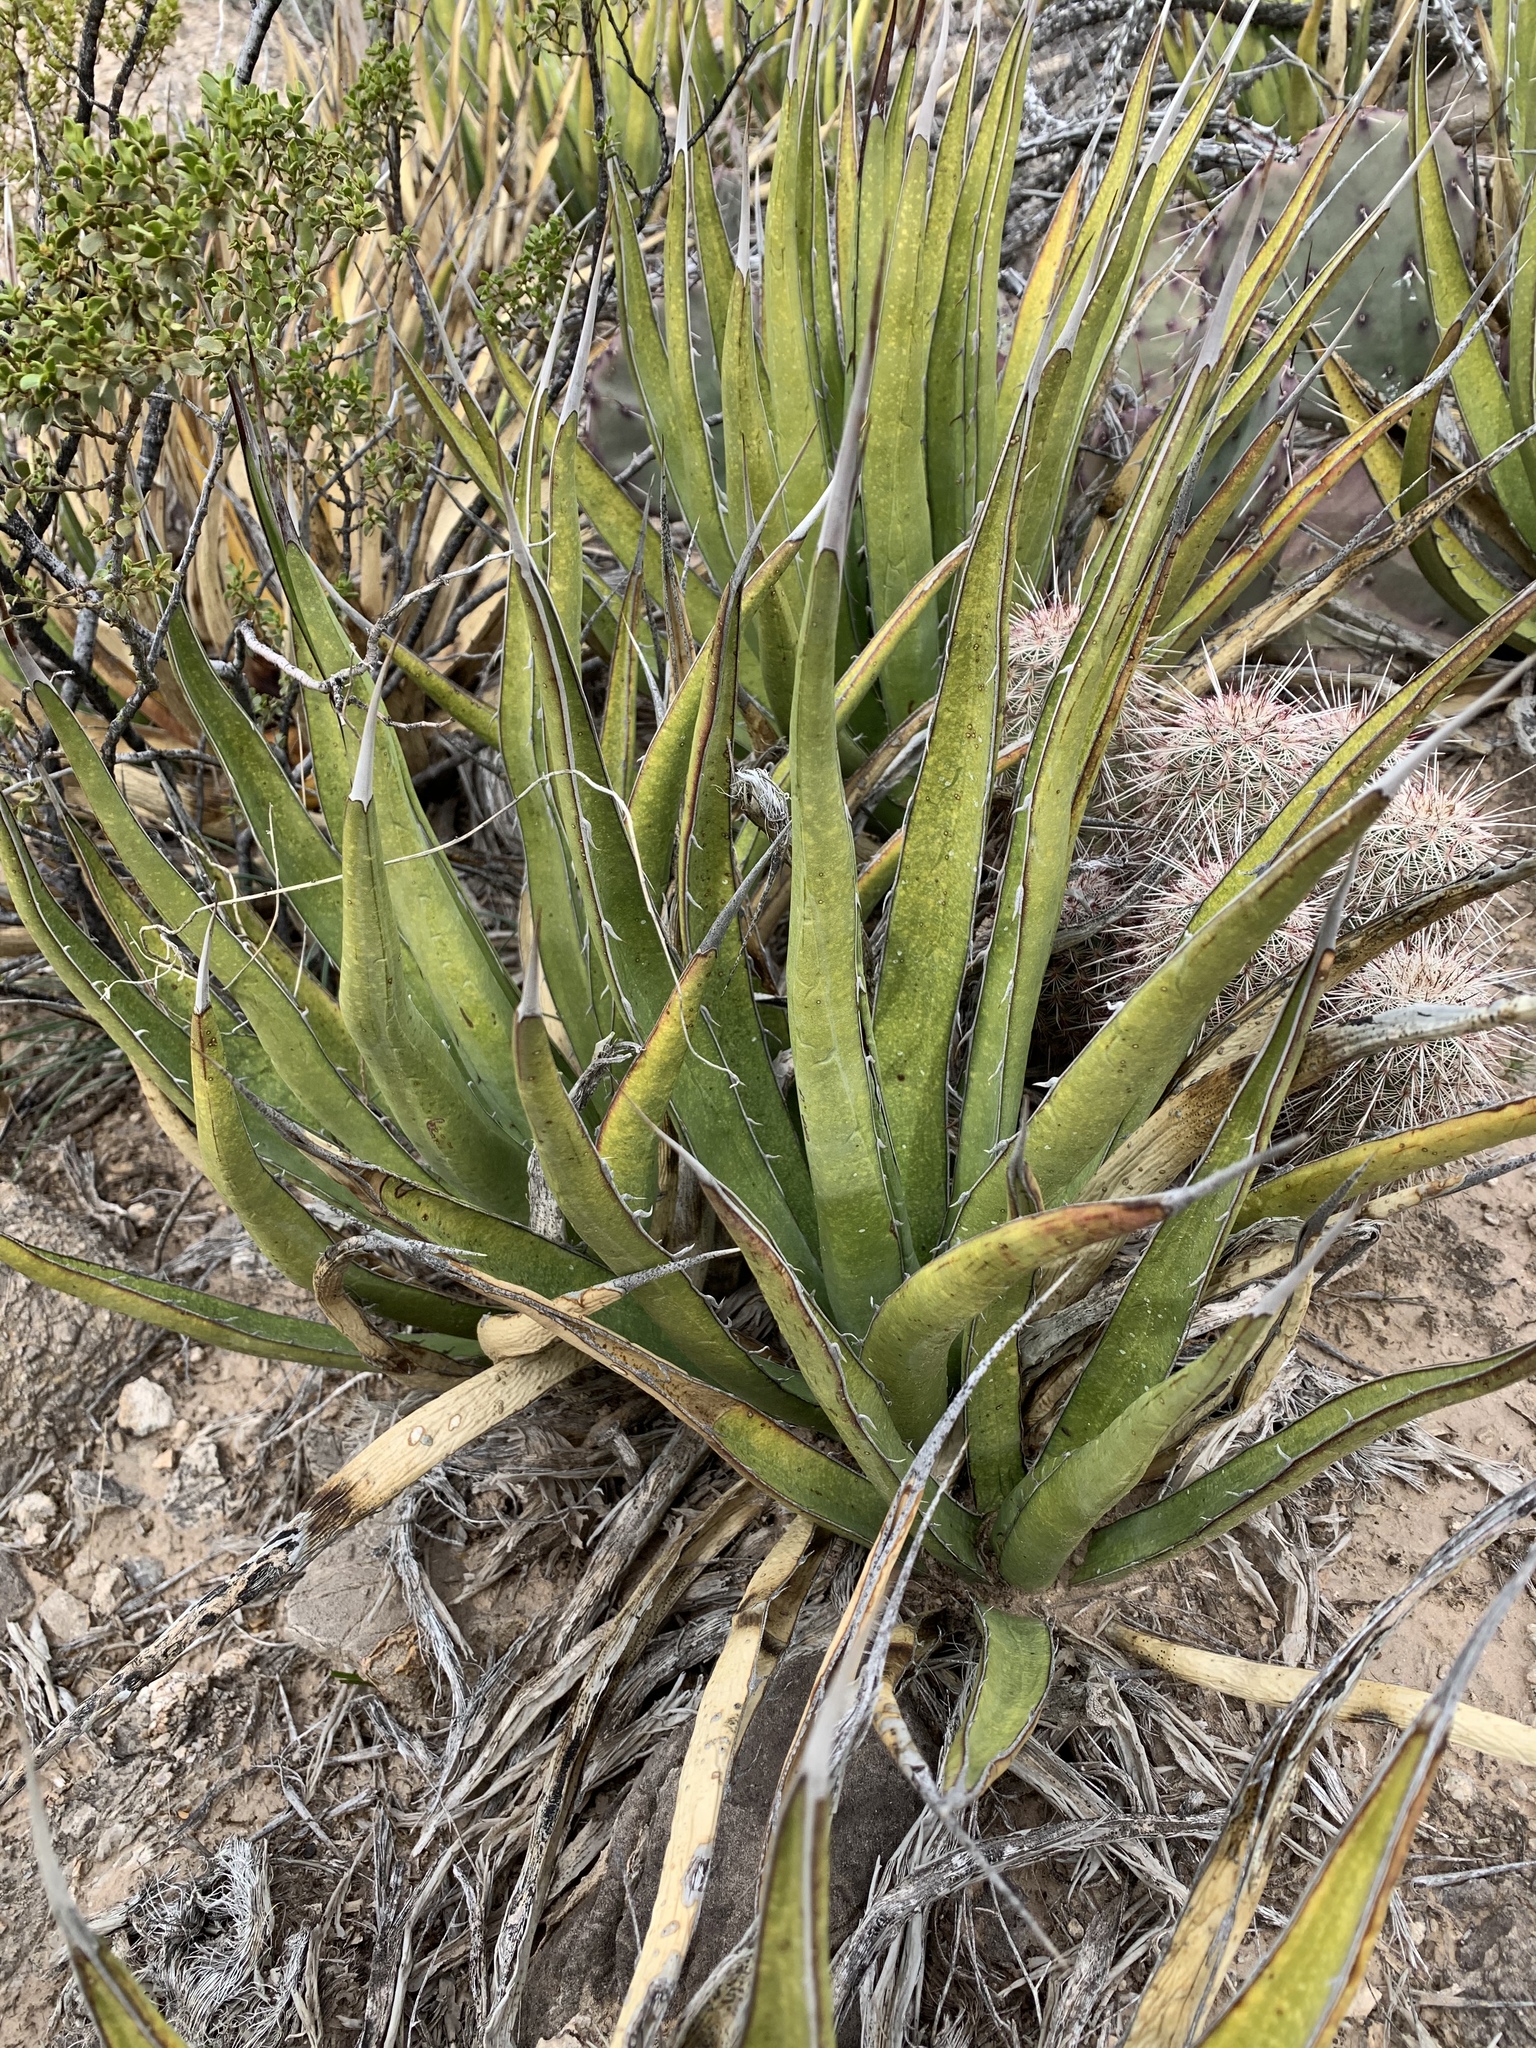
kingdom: Plantae
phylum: Tracheophyta
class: Liliopsida
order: Asparagales
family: Asparagaceae
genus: Agave
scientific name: Agave lechuguilla
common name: Lecheguilla agave
